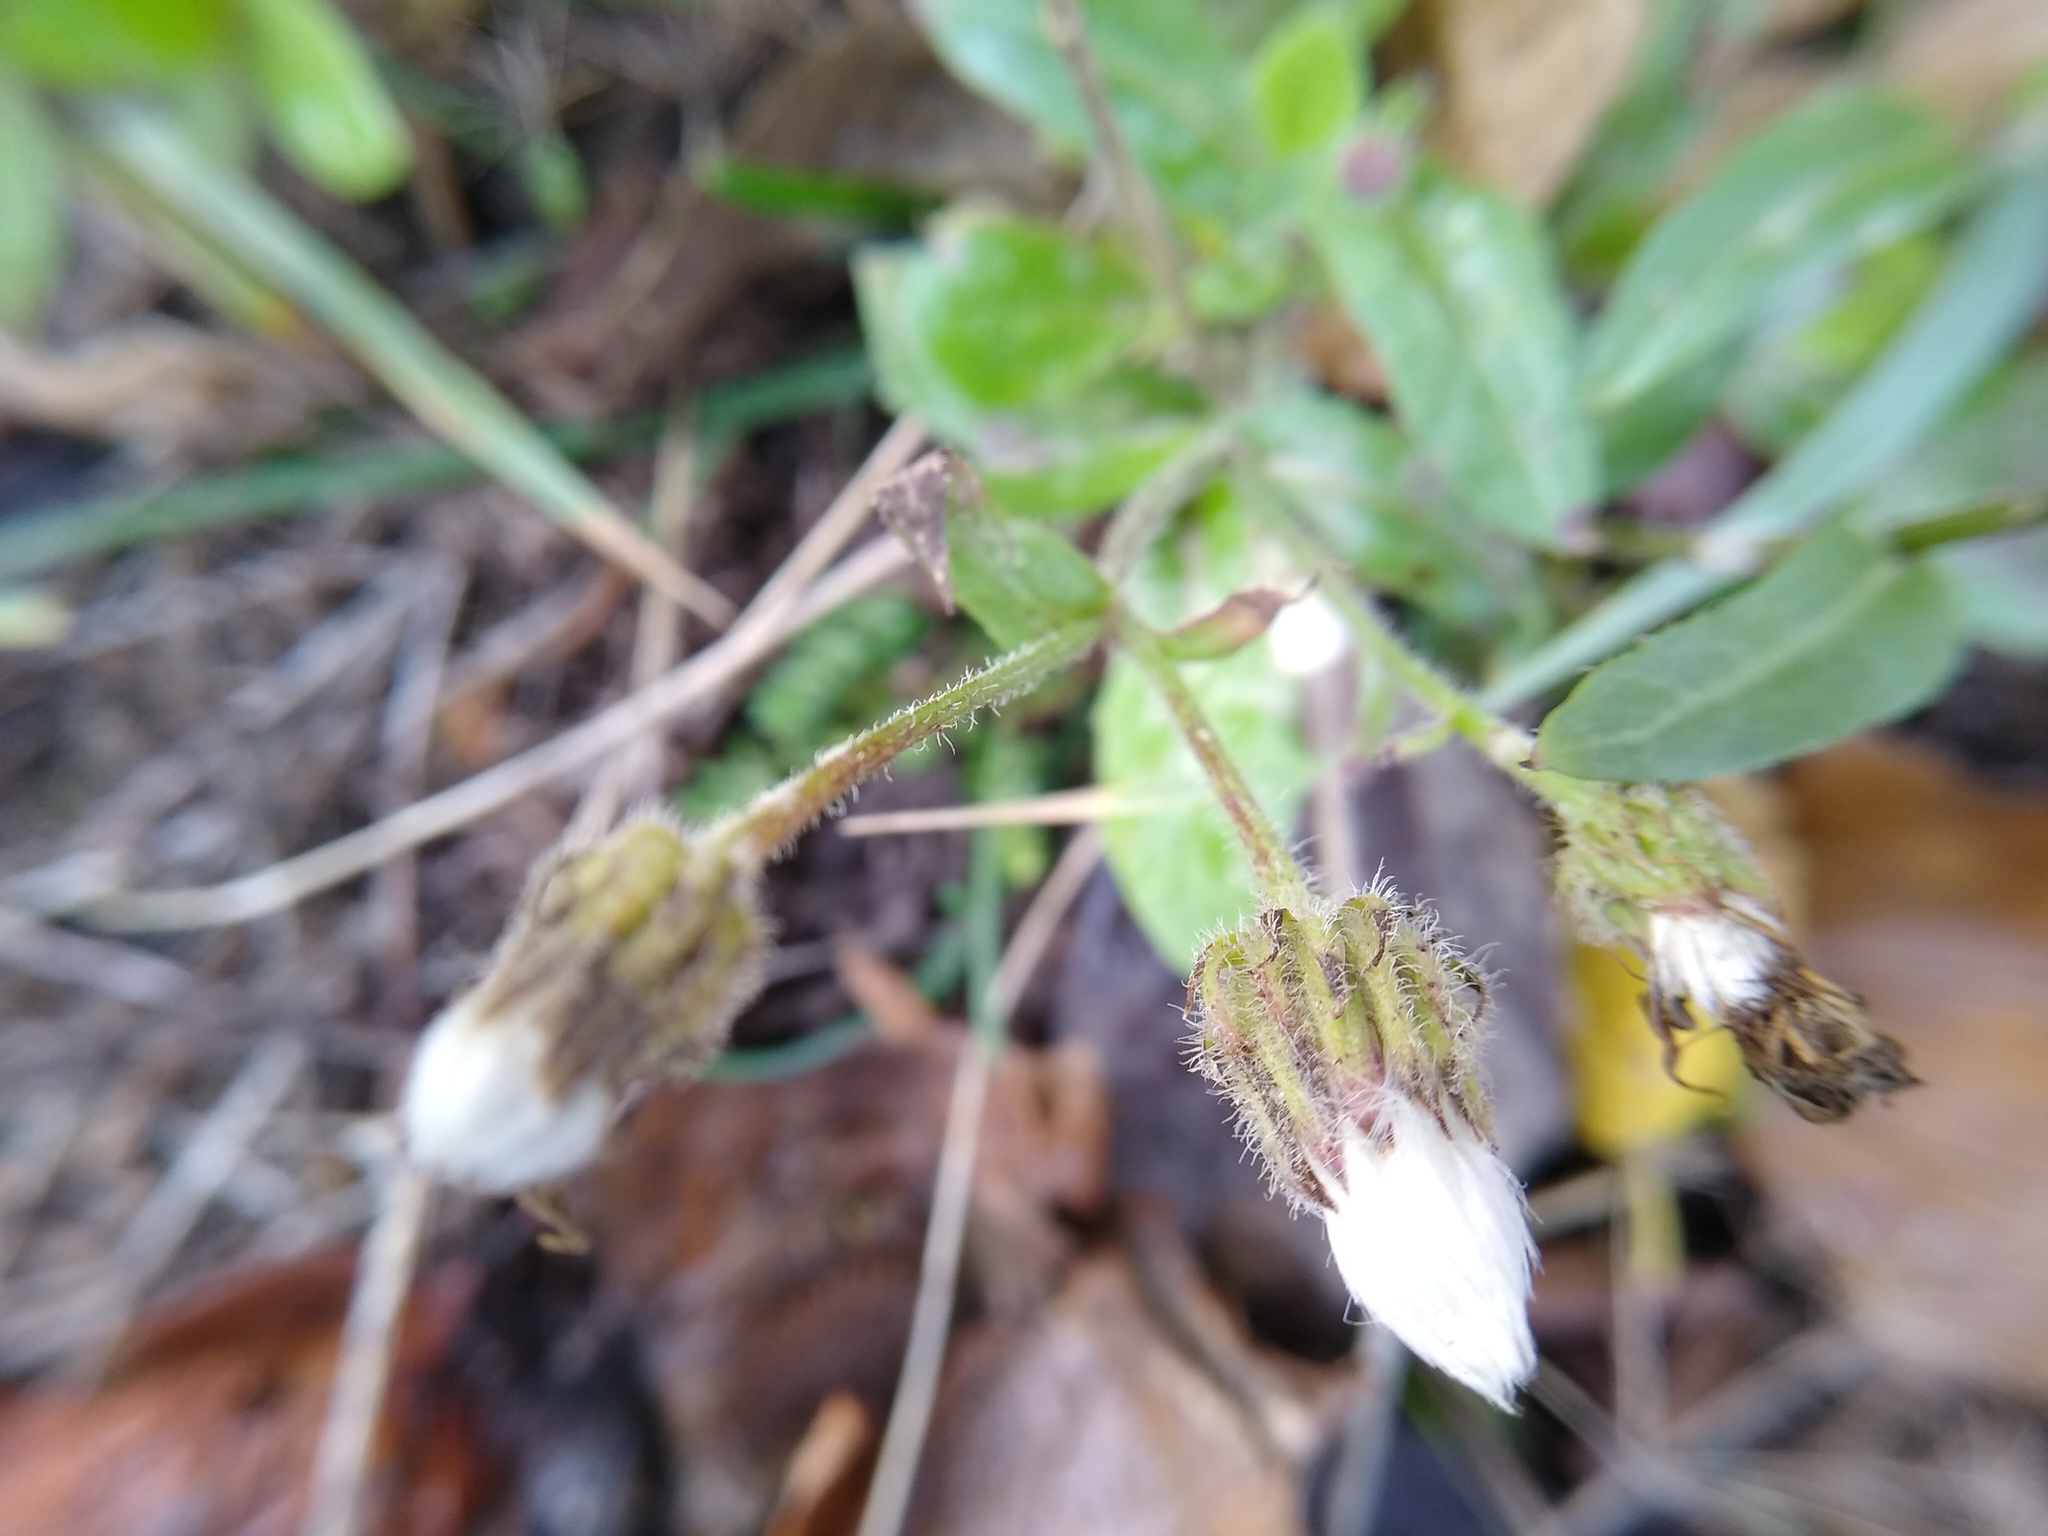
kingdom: Plantae
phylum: Tracheophyta
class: Magnoliopsida
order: Asterales
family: Asteraceae
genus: Crepis
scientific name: Crepis foetida
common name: Stinking hawk's-beard
